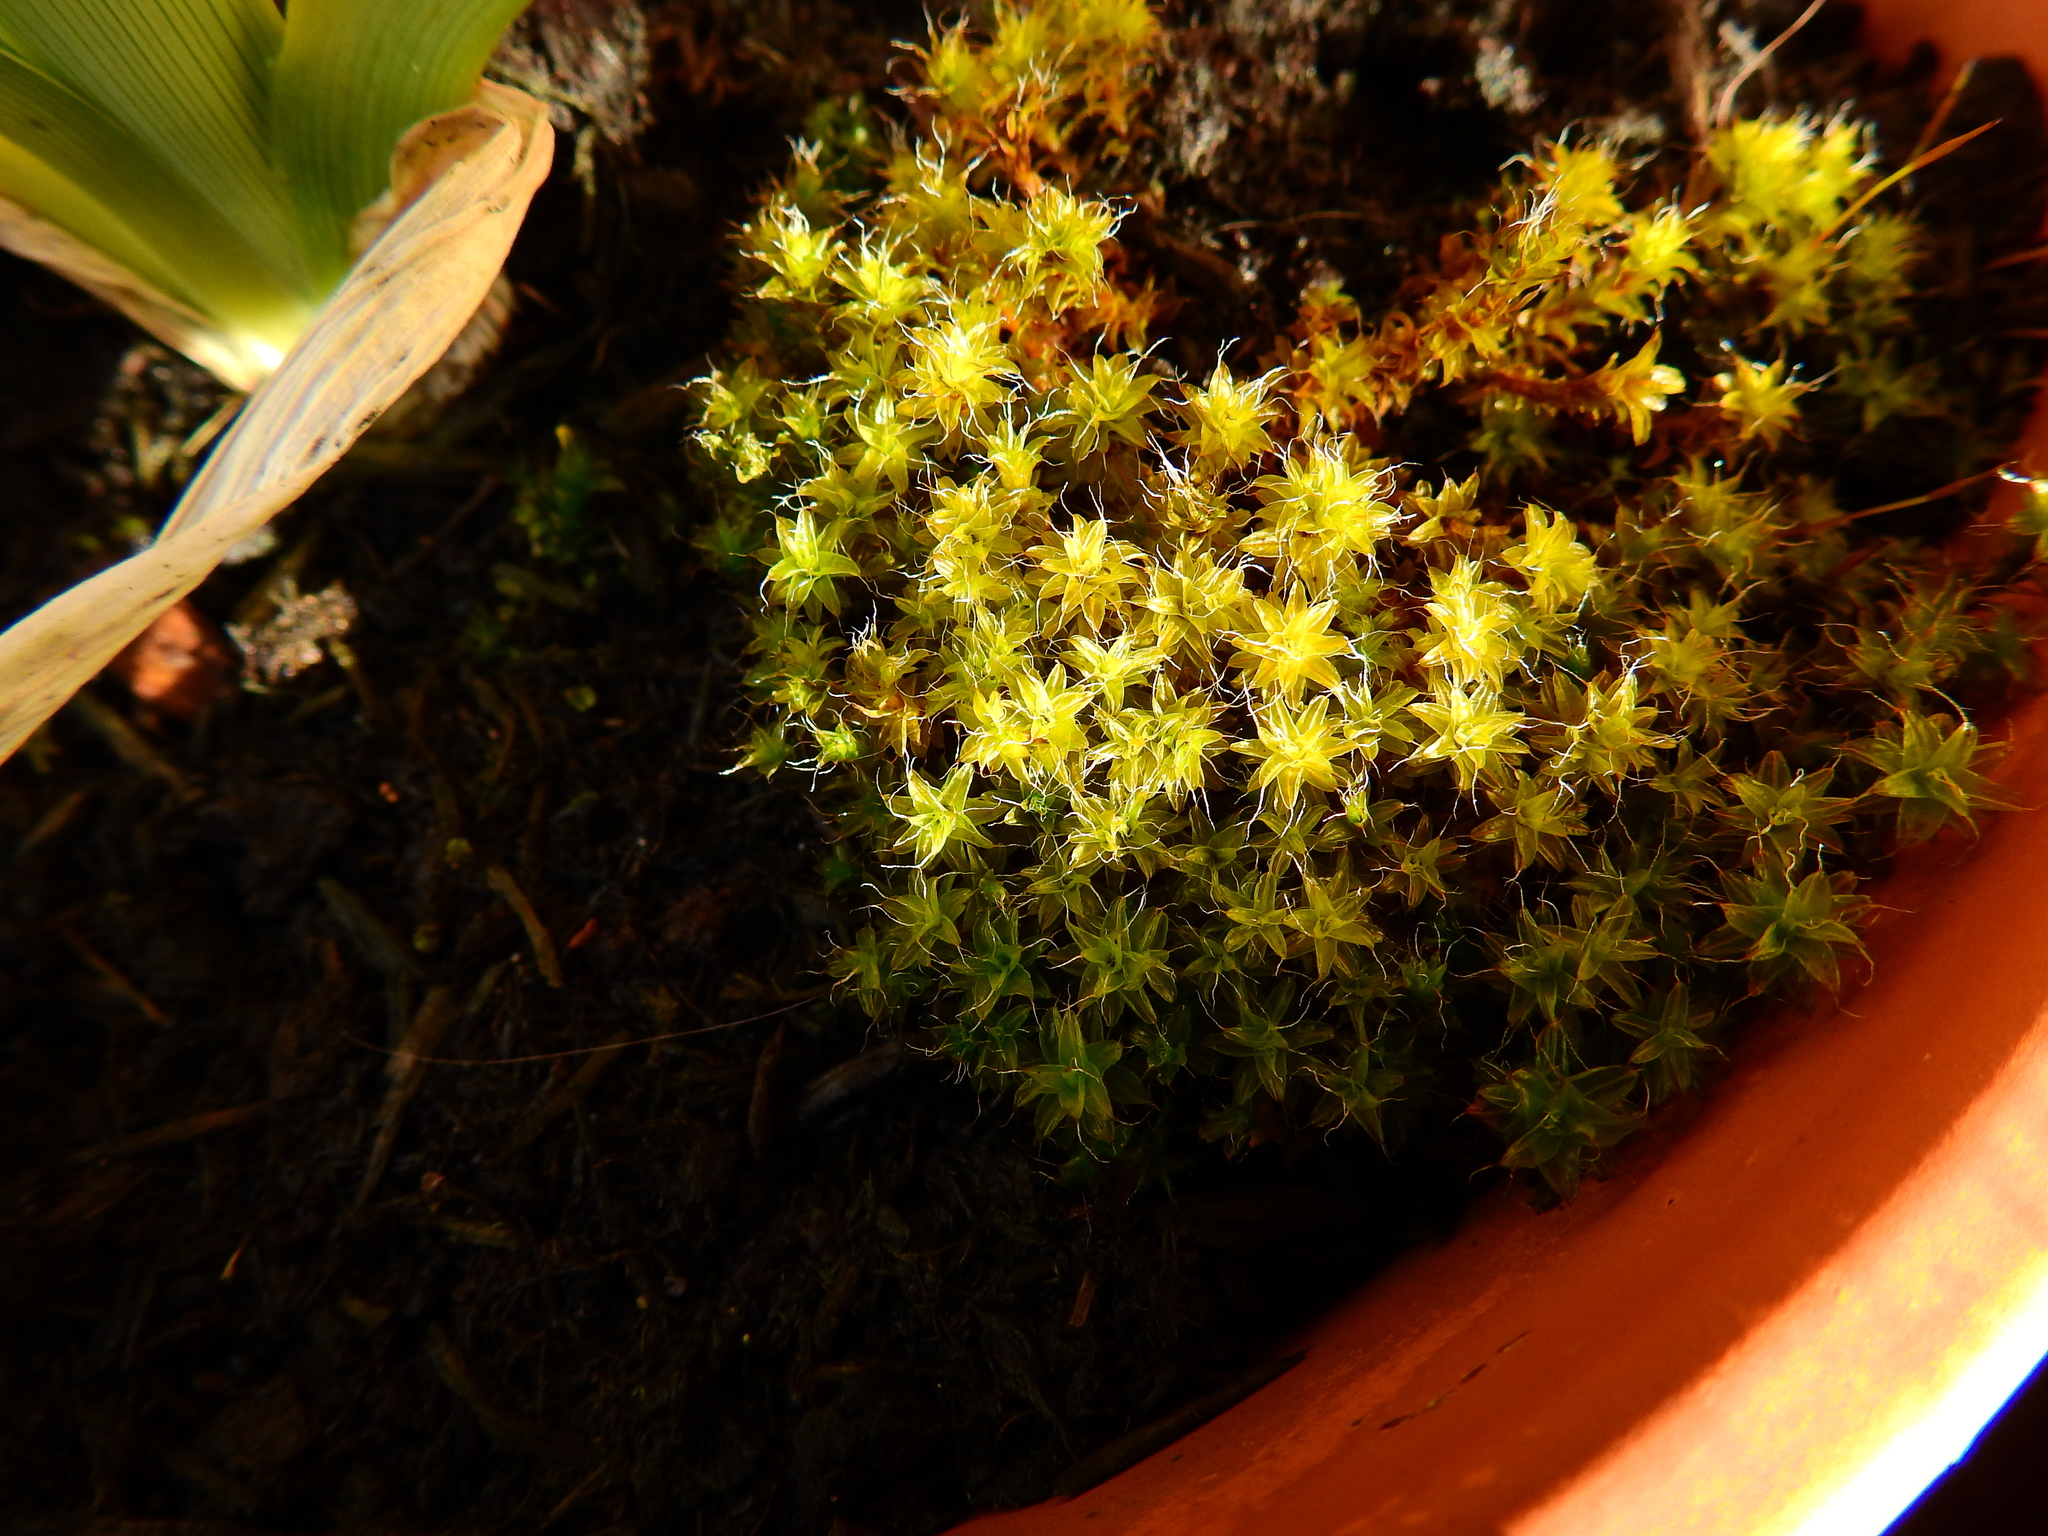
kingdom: Plantae
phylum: Bryophyta
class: Bryopsida
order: Pottiales
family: Pottiaceae
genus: Syntrichia
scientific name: Syntrichia ruralis
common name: Sidewalk screw moss
